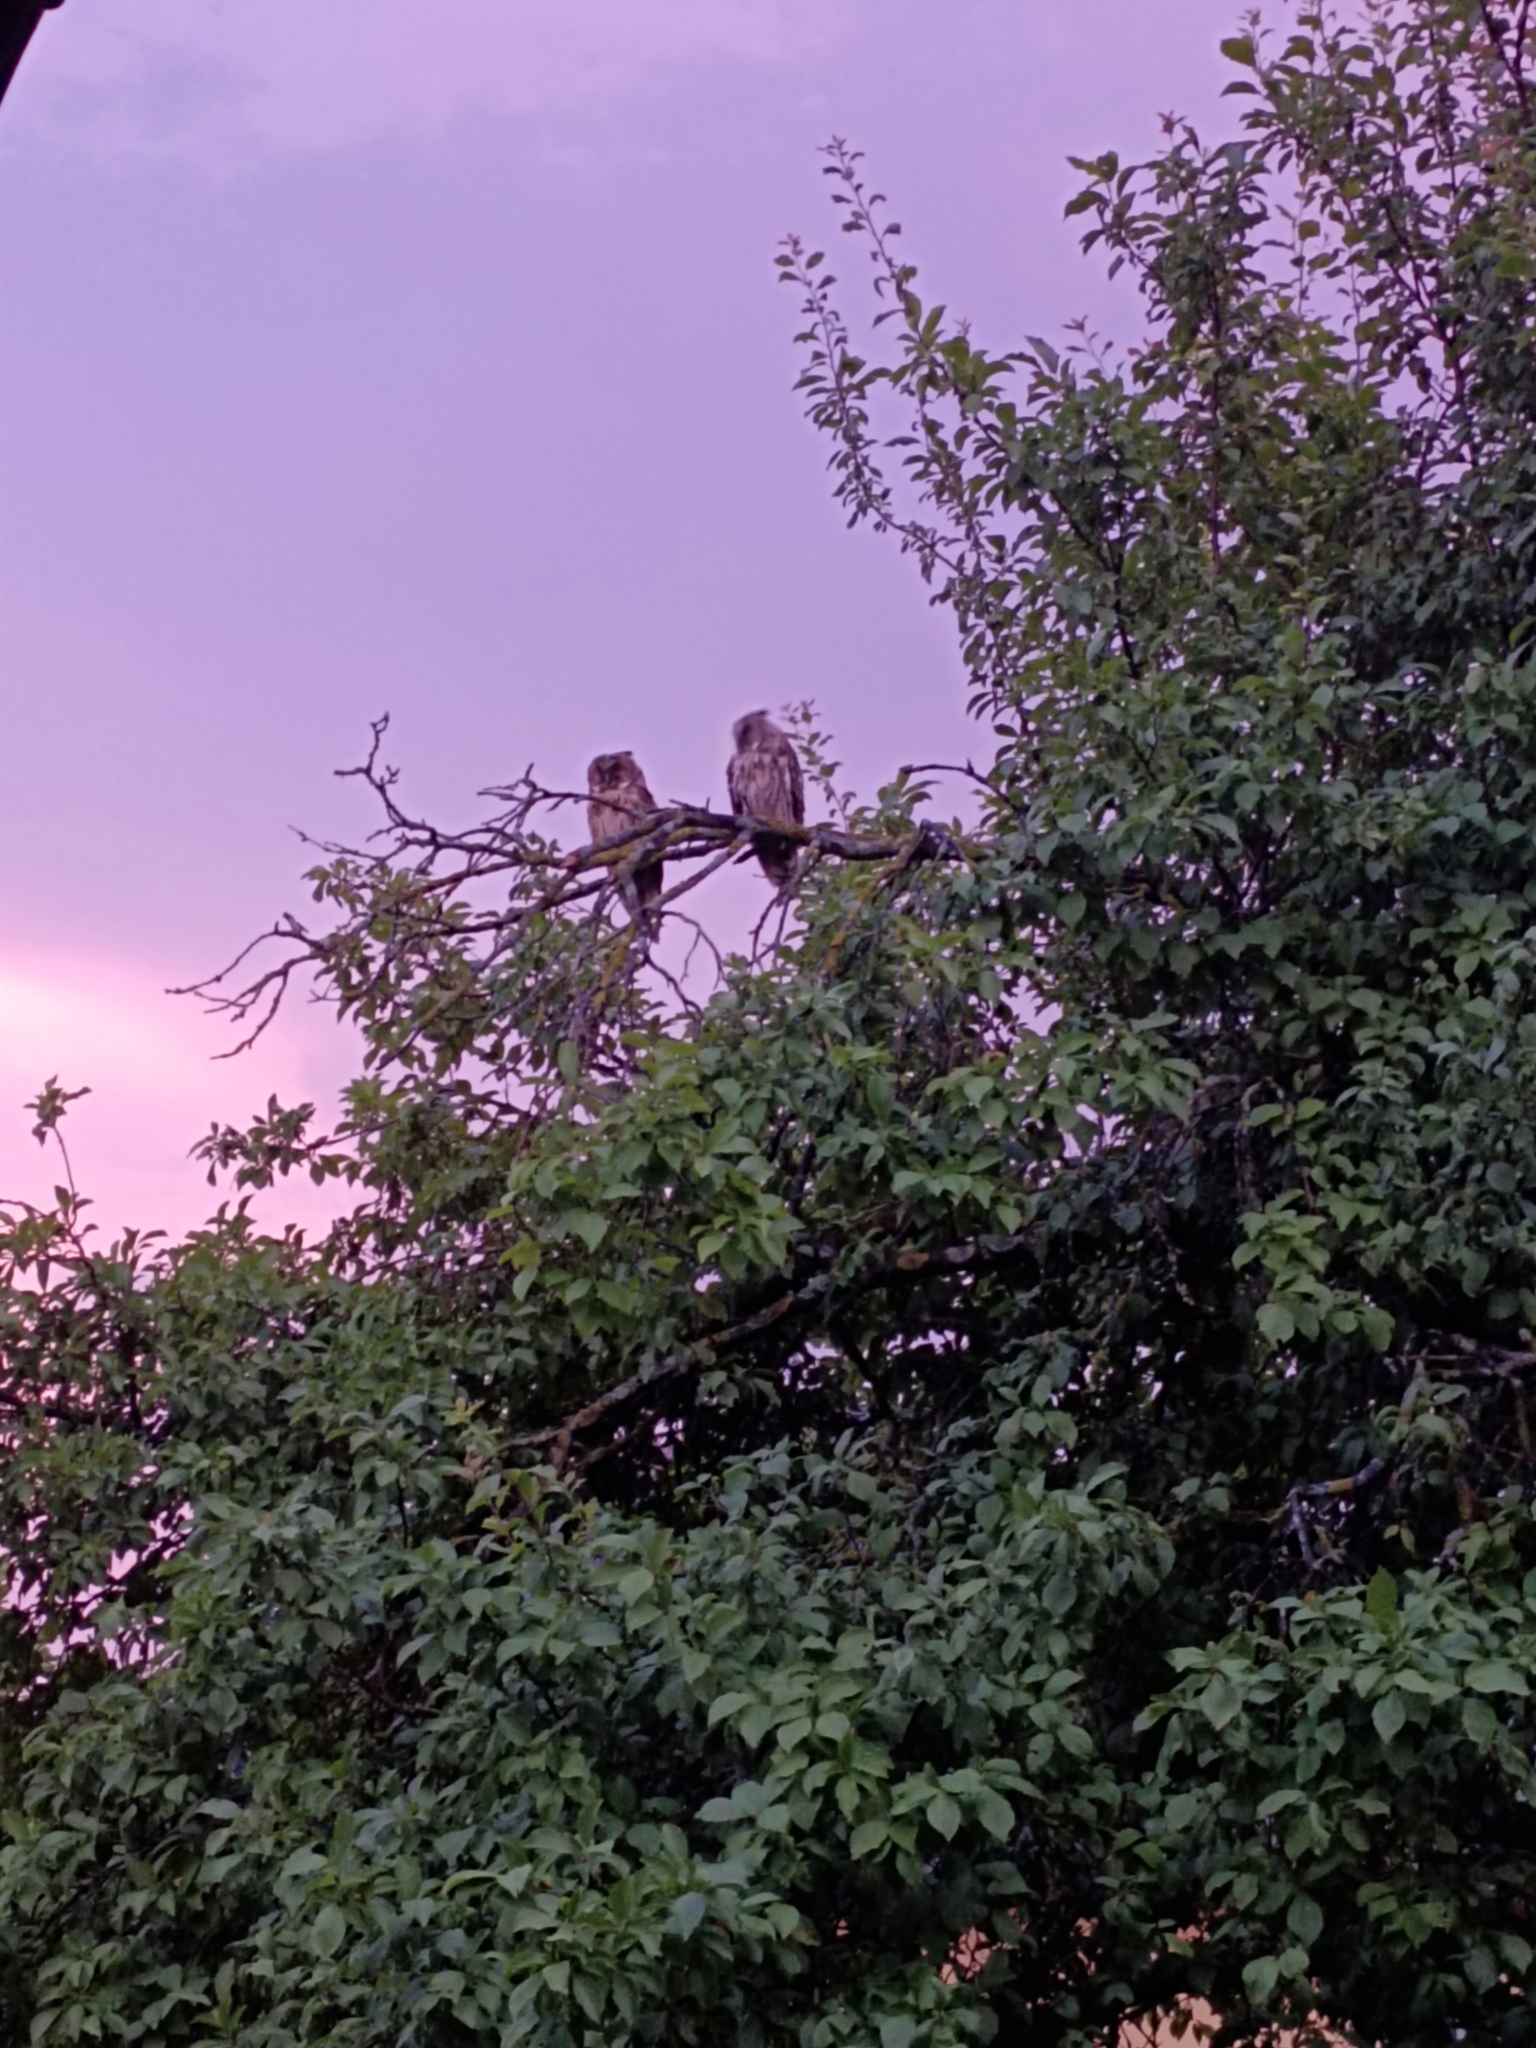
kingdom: Animalia
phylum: Chordata
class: Aves
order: Strigiformes
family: Strigidae
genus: Asio
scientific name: Asio otus
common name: Long-eared owl
